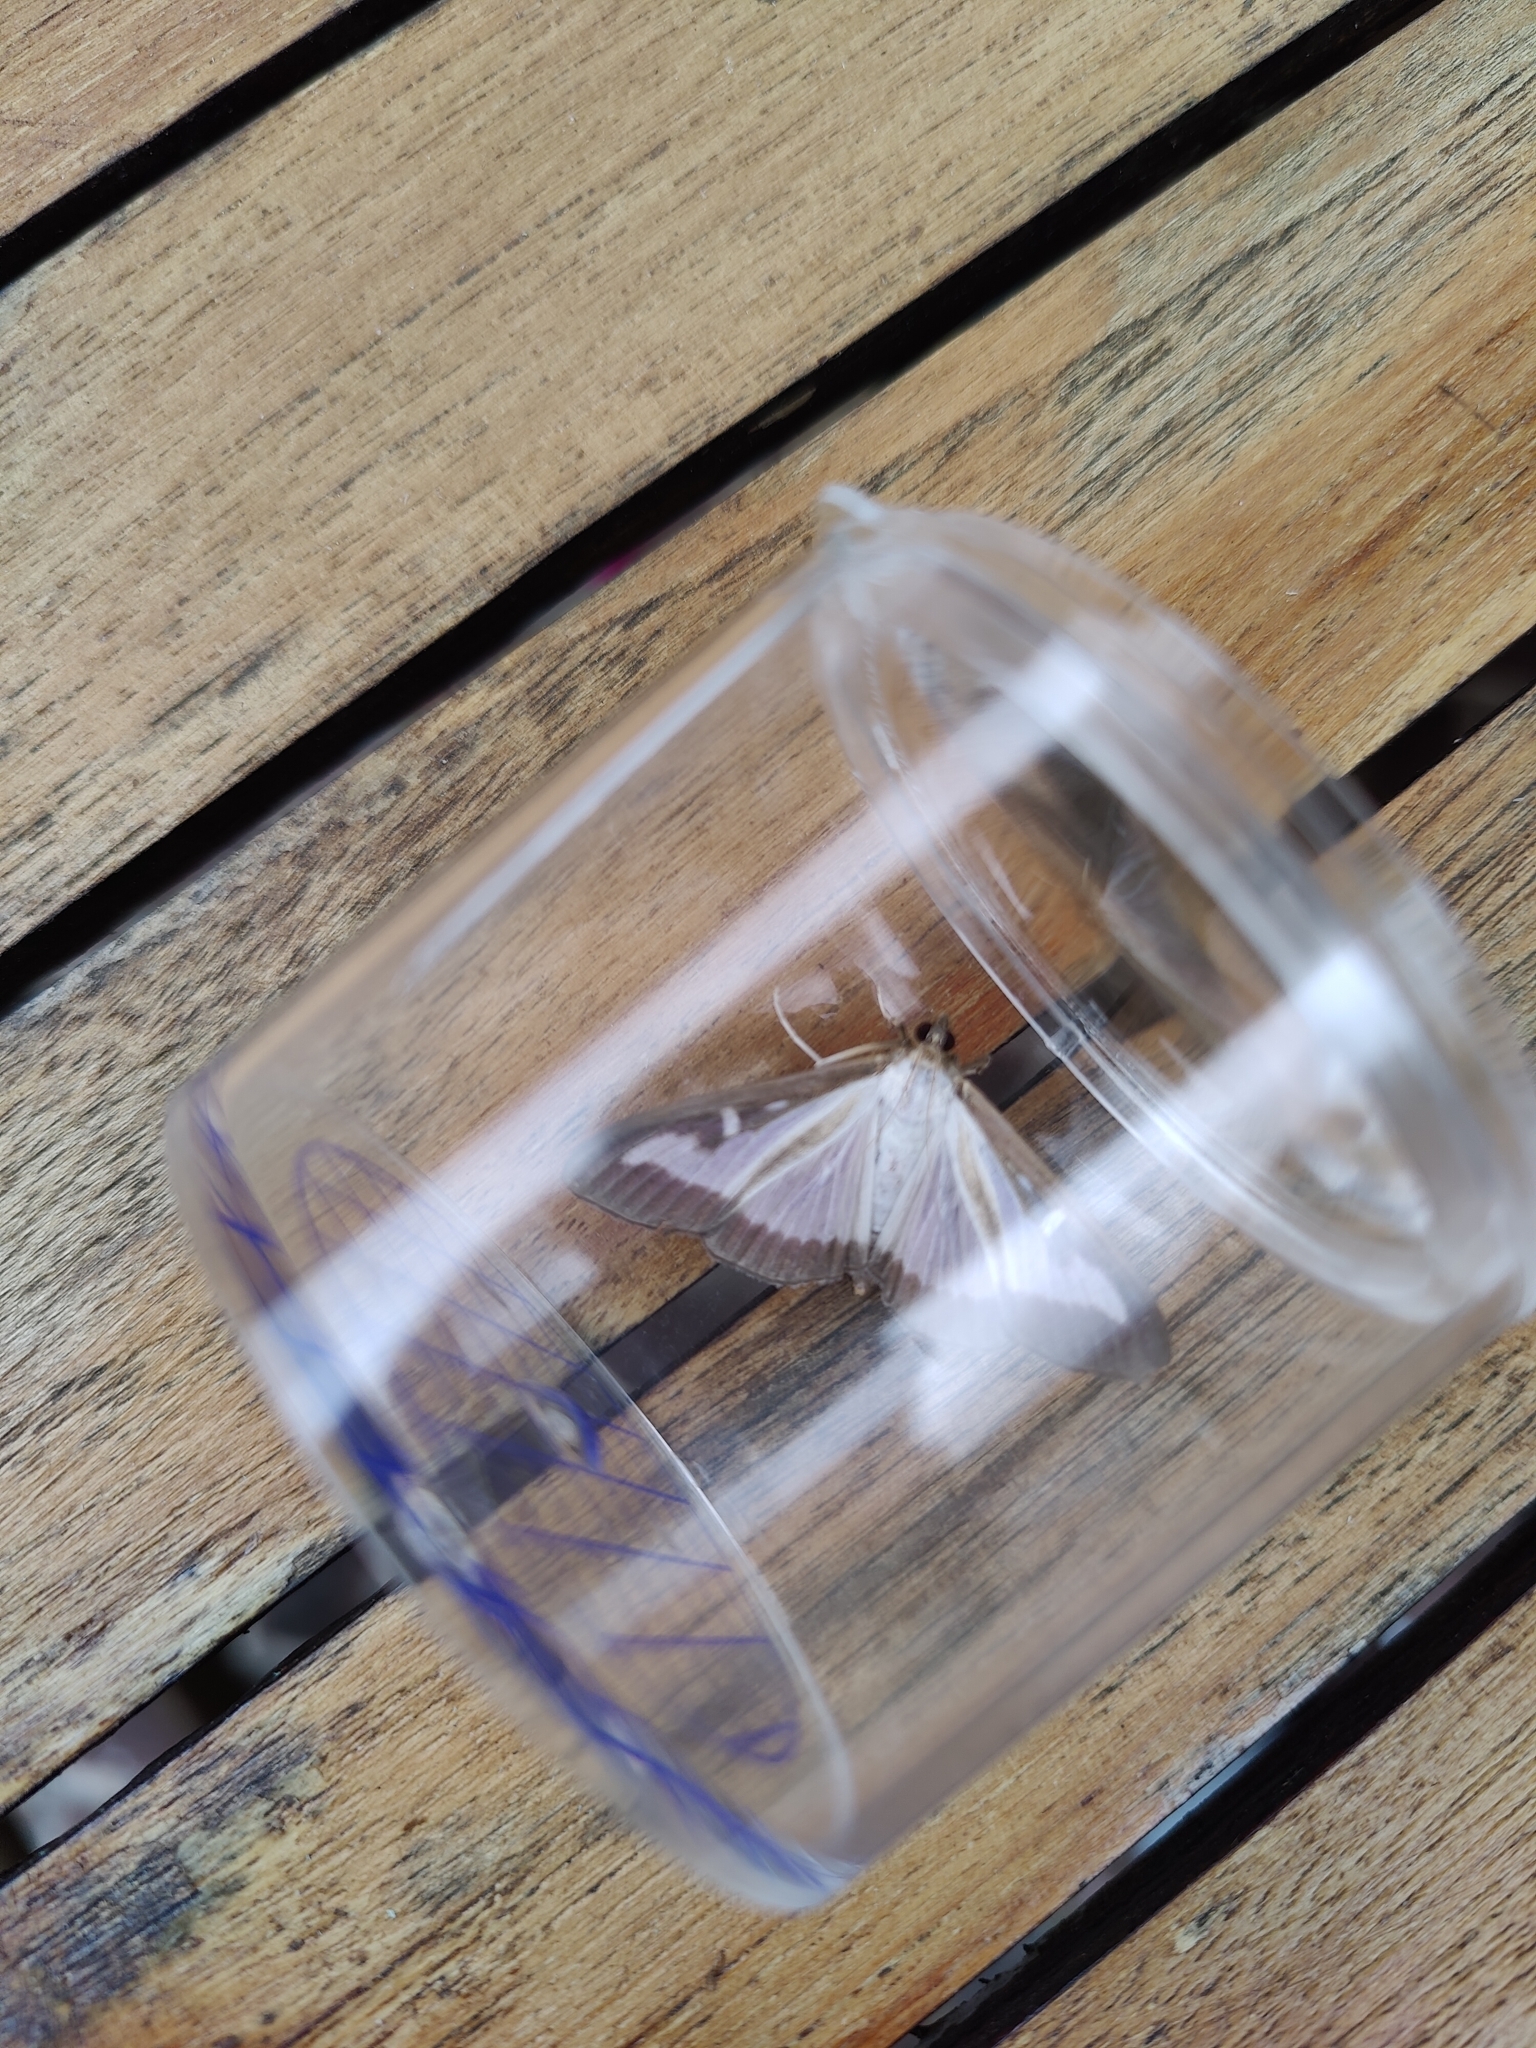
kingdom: Animalia
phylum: Arthropoda
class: Insecta
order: Lepidoptera
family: Crambidae
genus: Cydalima
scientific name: Cydalima perspectalis
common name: Box tree moth
